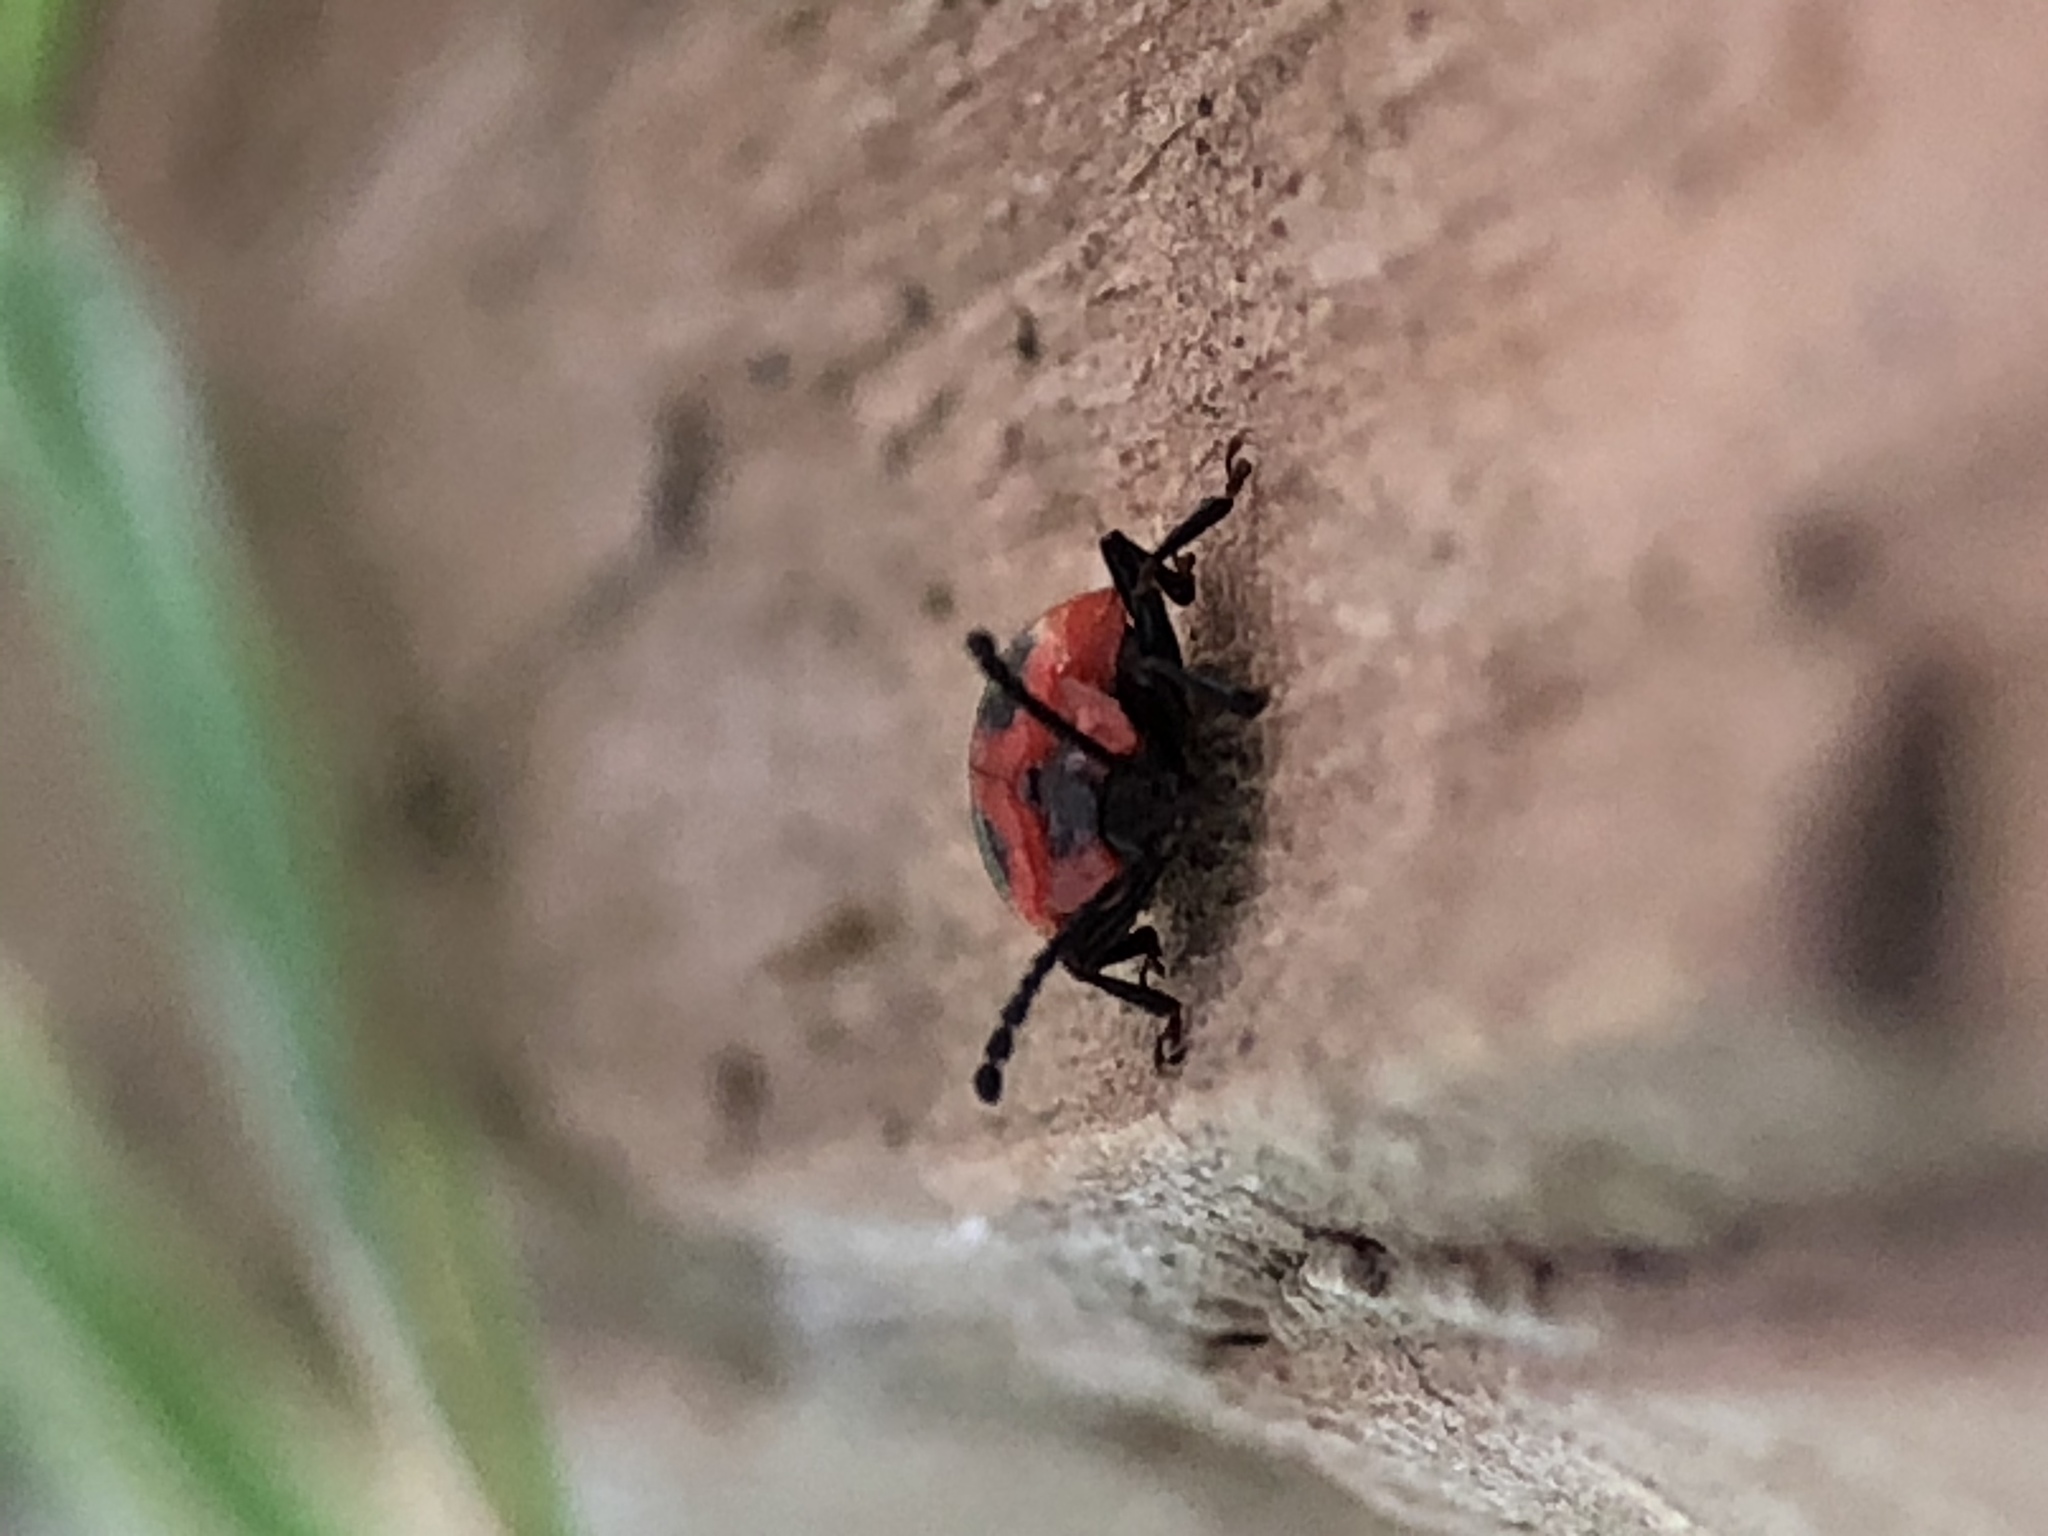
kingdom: Animalia
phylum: Arthropoda
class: Insecta
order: Coleoptera
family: Endomychidae
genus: Endomychus
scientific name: Endomychus coccineus
